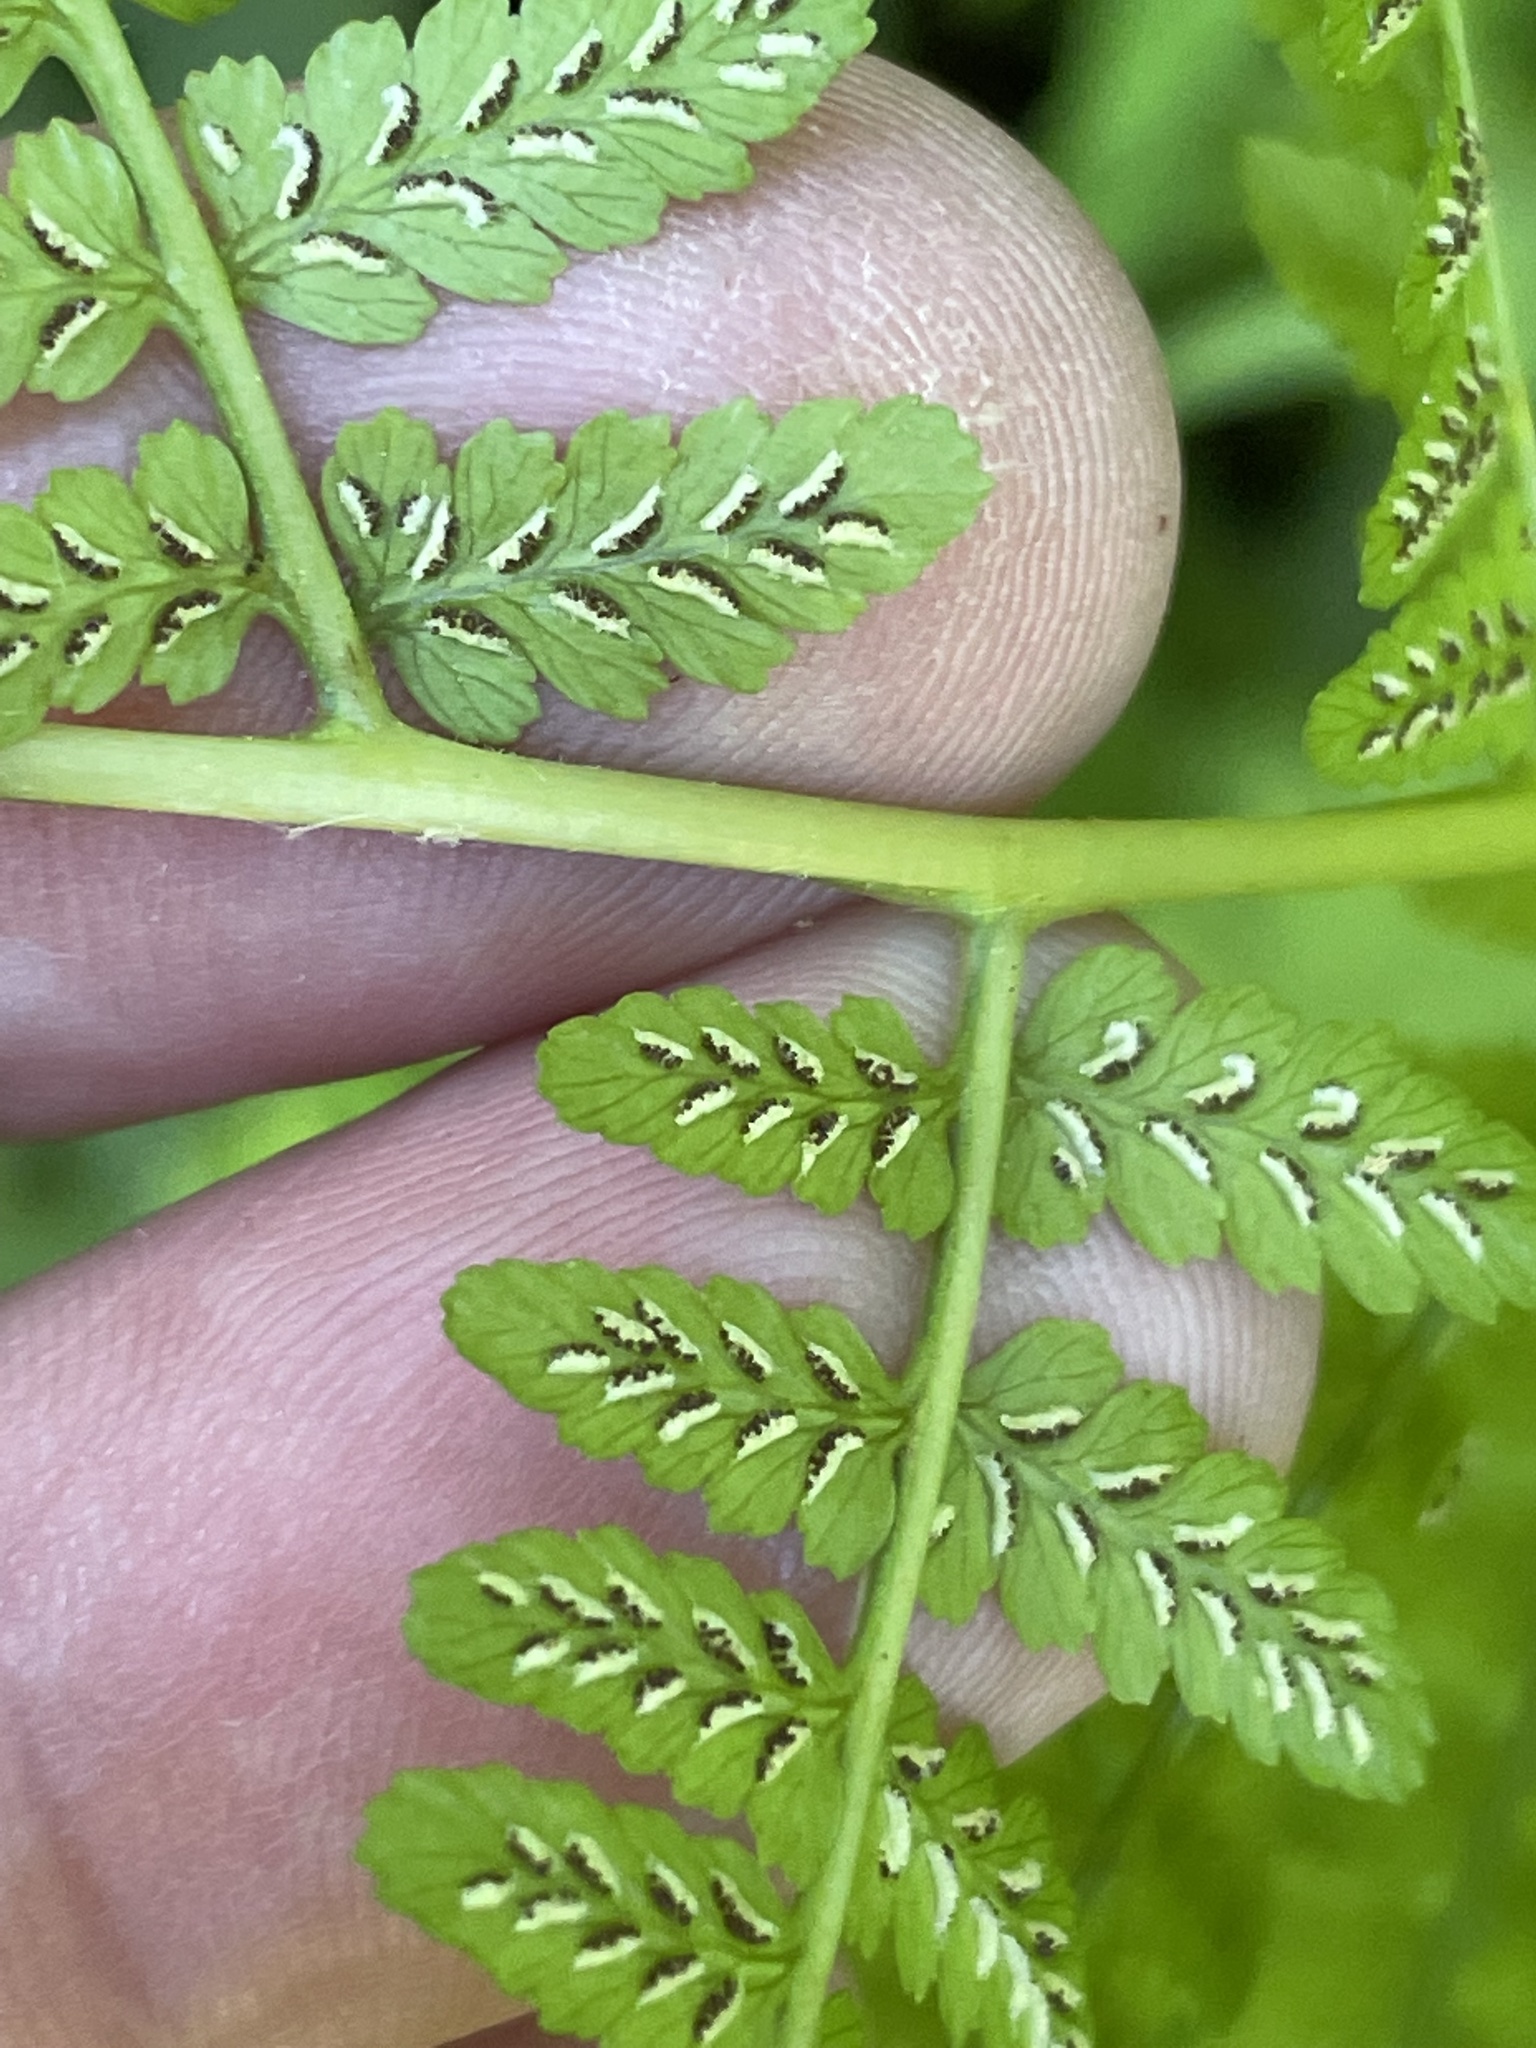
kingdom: Plantae
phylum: Tracheophyta
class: Polypodiopsida
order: Polypodiales
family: Athyriaceae
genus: Athyrium
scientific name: Athyrium asplenioides
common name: Southern lady fern
